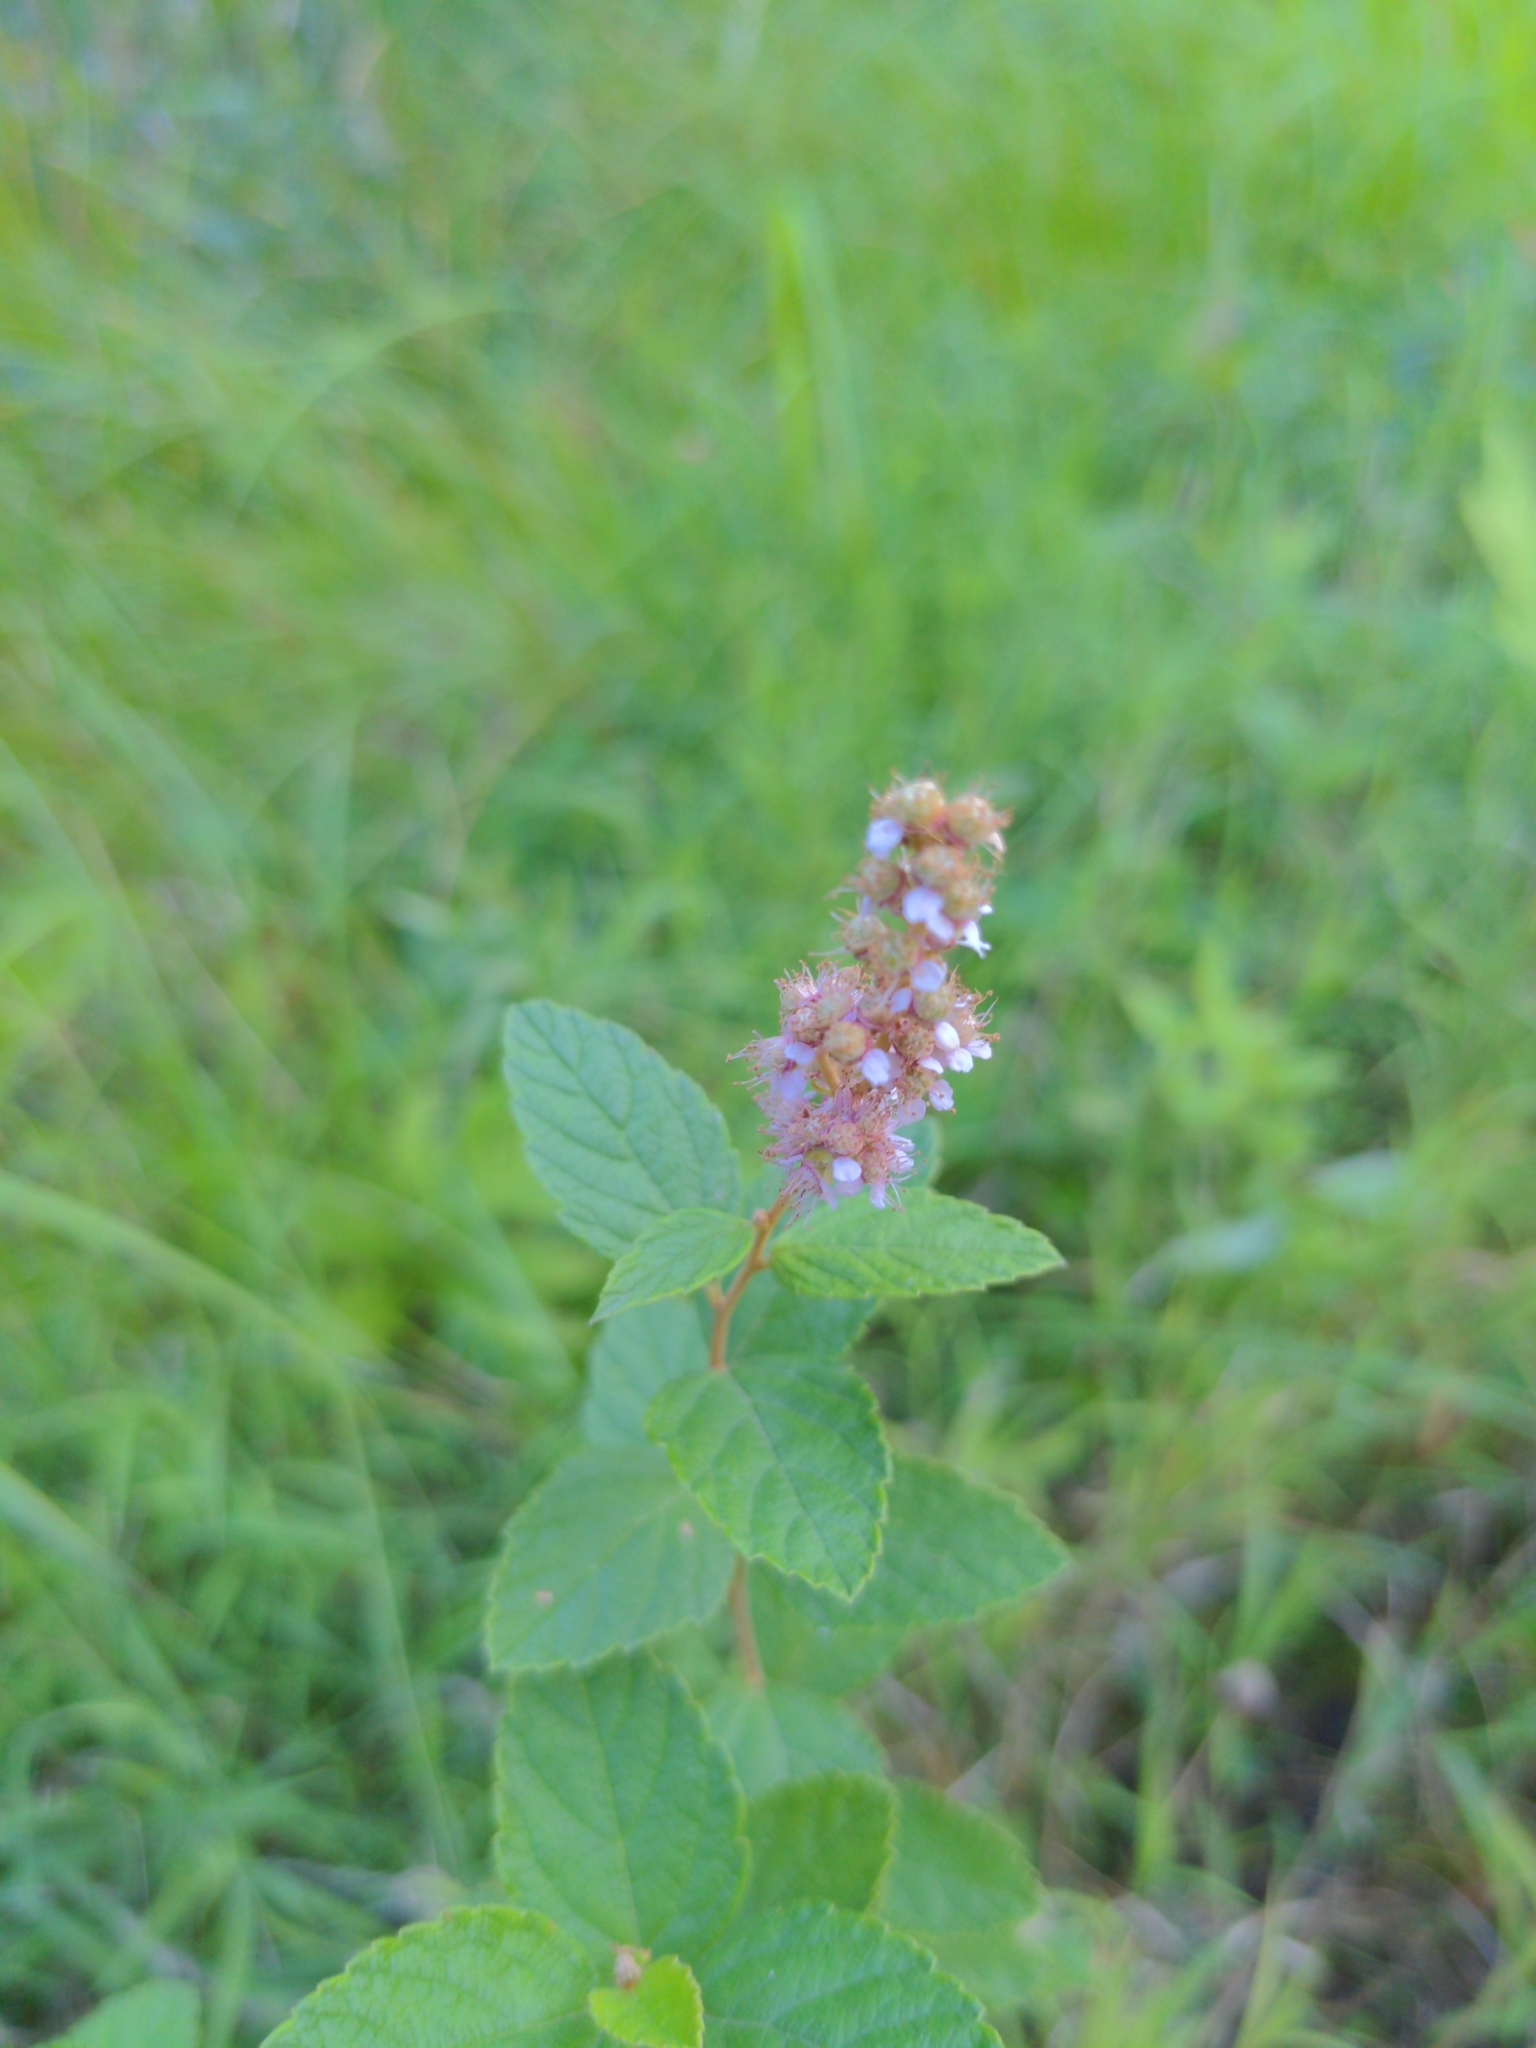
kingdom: Plantae
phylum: Tracheophyta
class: Magnoliopsida
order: Rosales
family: Rosaceae
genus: Spiraea
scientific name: Spiraea tomentosa
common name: Hardhack
